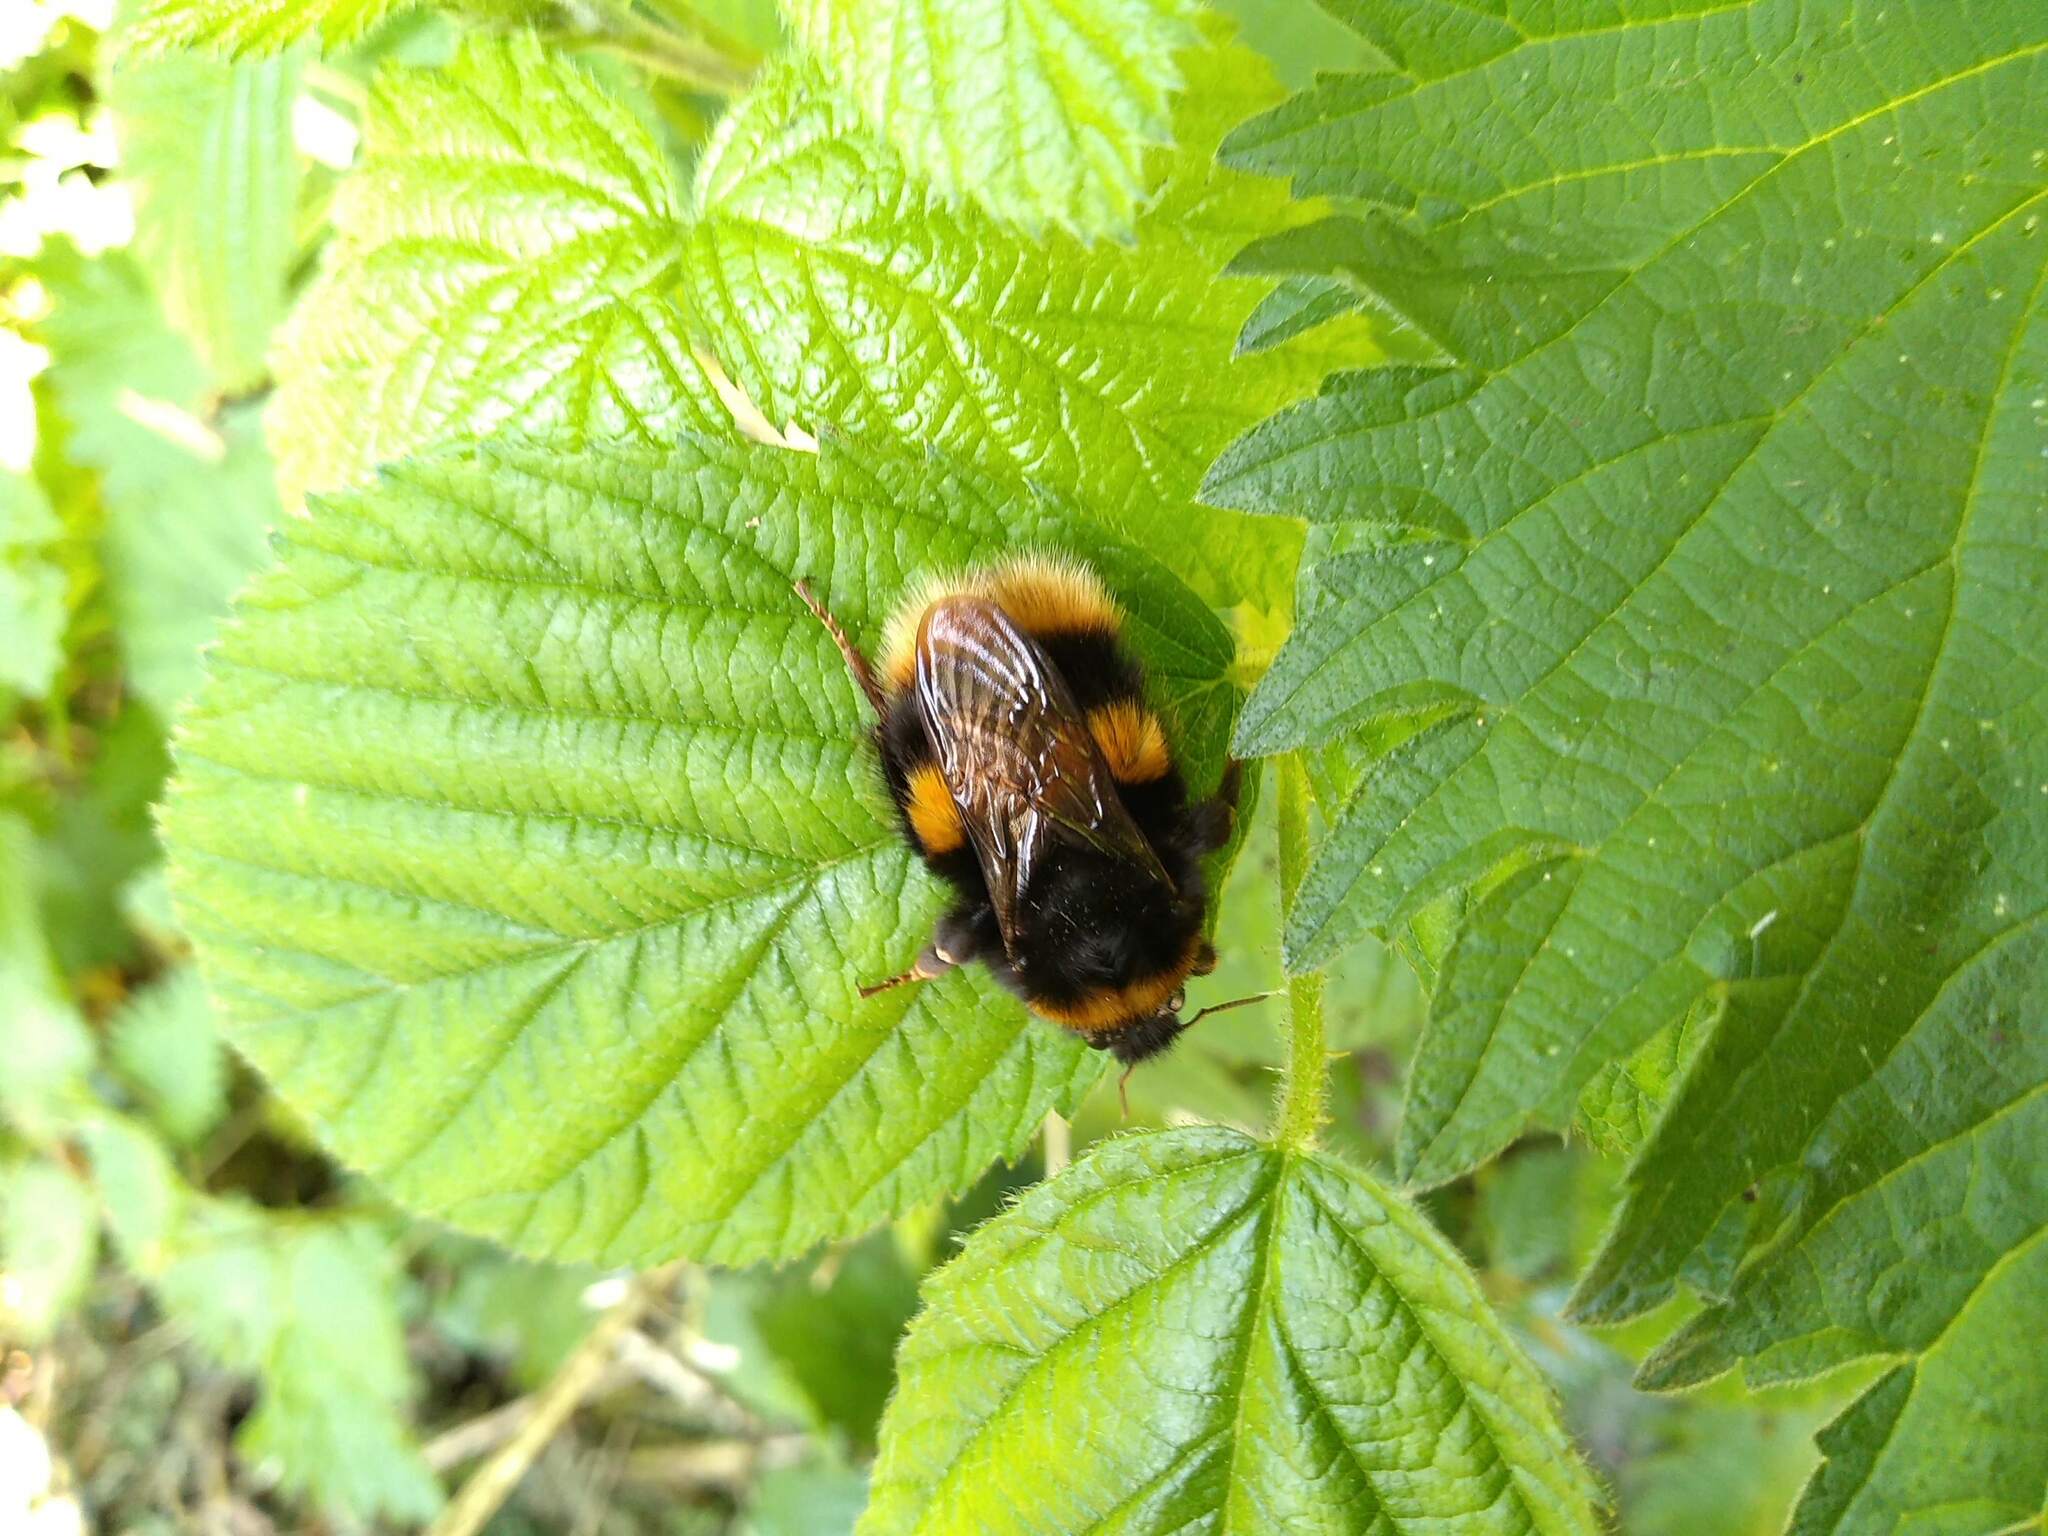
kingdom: Animalia
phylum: Arthropoda
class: Insecta
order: Hymenoptera
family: Apidae
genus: Bombus
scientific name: Bombus terrestris
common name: Buff-tailed bumblebee
